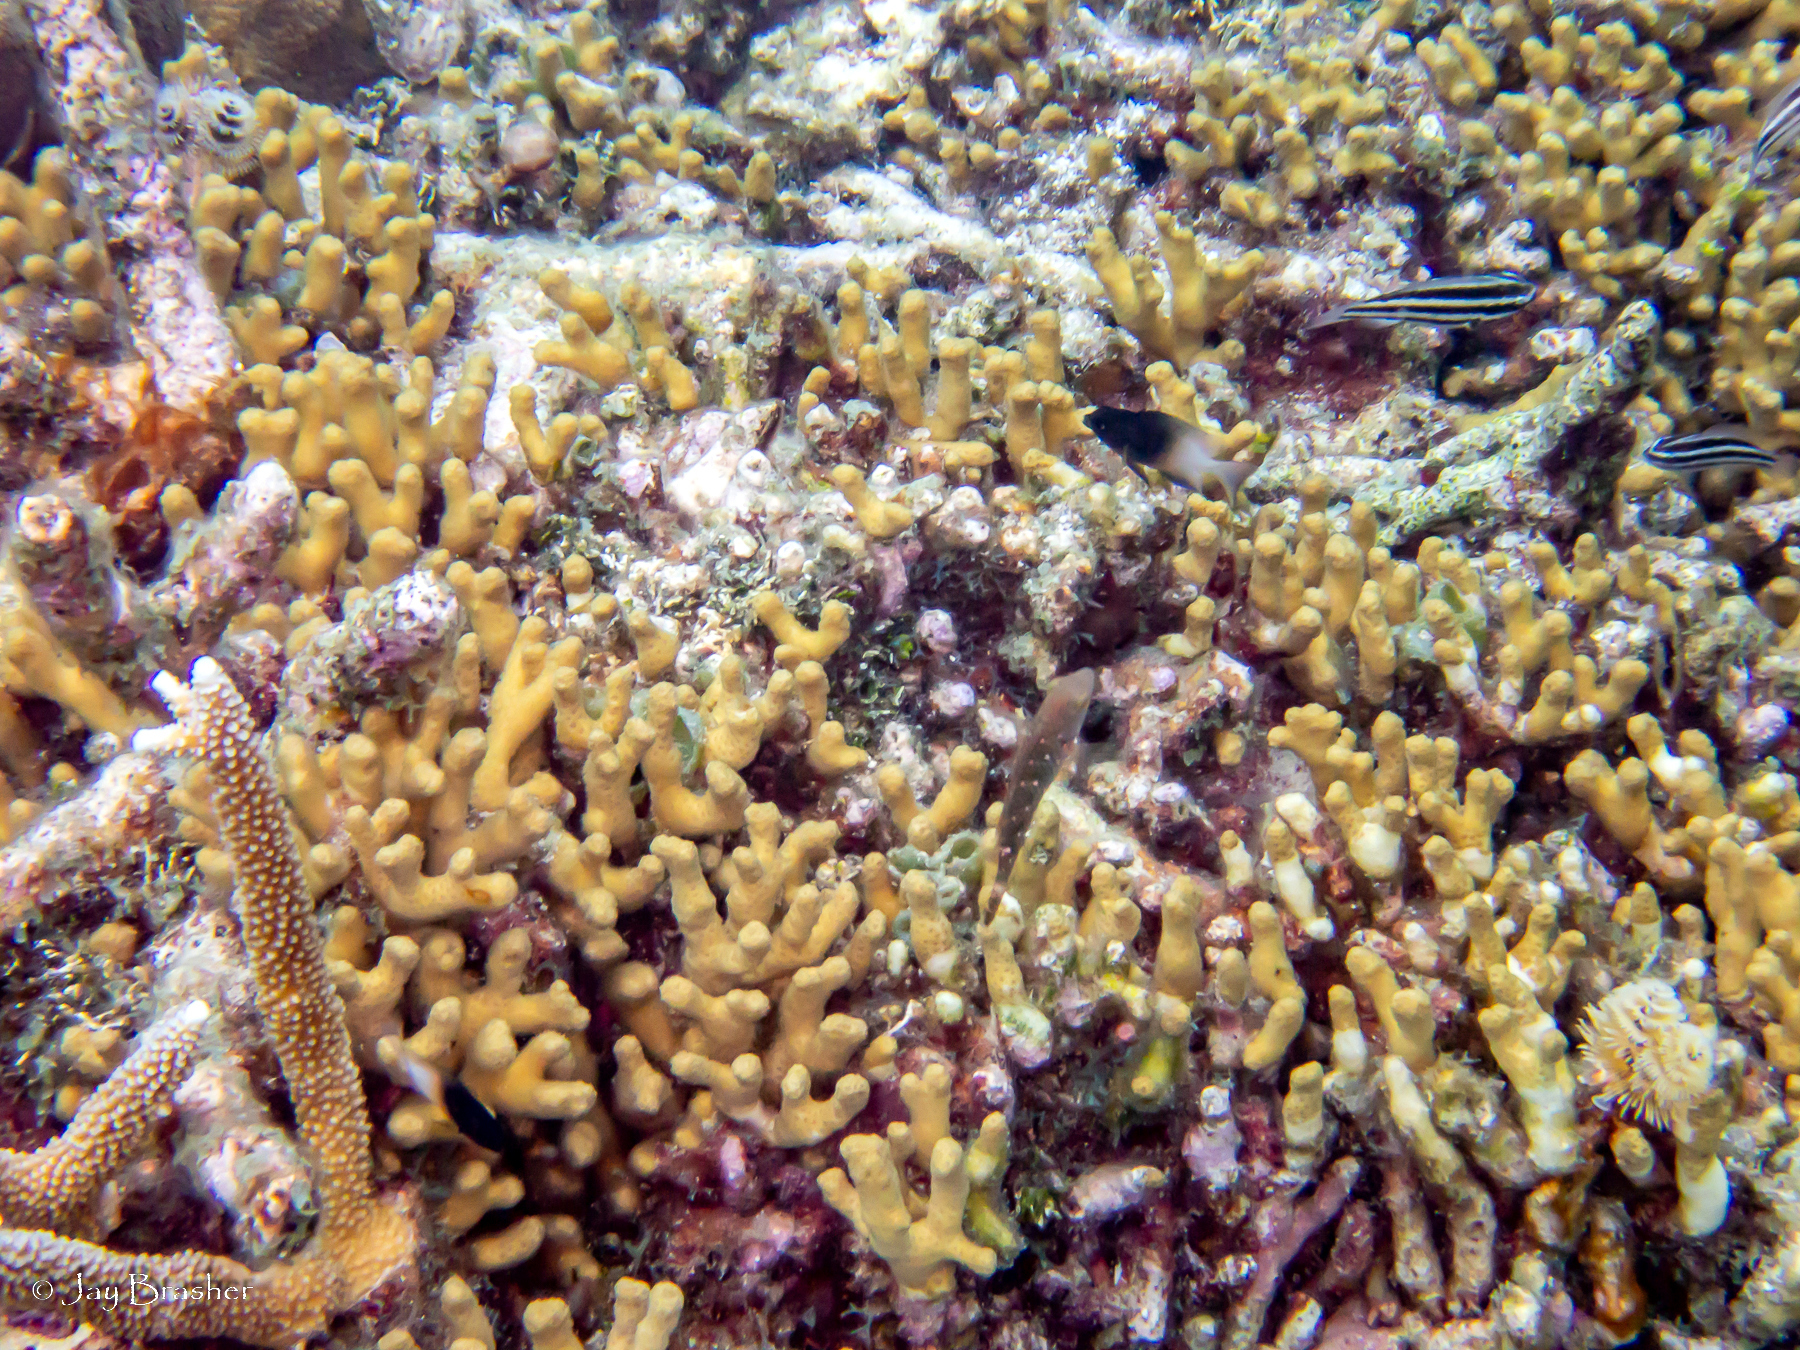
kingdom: Animalia
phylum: Cnidaria
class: Anthozoa
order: Scleractinia
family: Acroporidae
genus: Acropora
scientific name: Acropora cervicornis
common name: Staghorn coral
